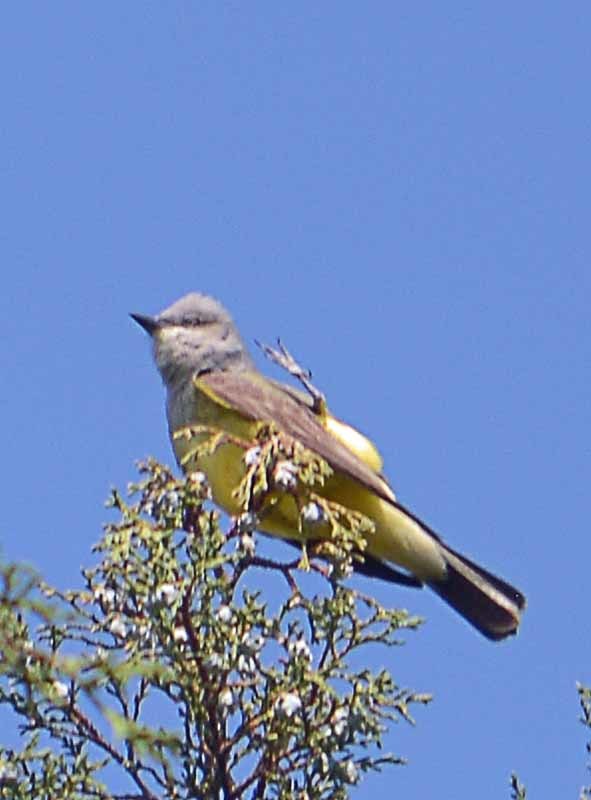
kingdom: Animalia
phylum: Chordata
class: Aves
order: Passeriformes
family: Tyrannidae
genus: Tyrannus
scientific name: Tyrannus verticalis
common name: Western kingbird
